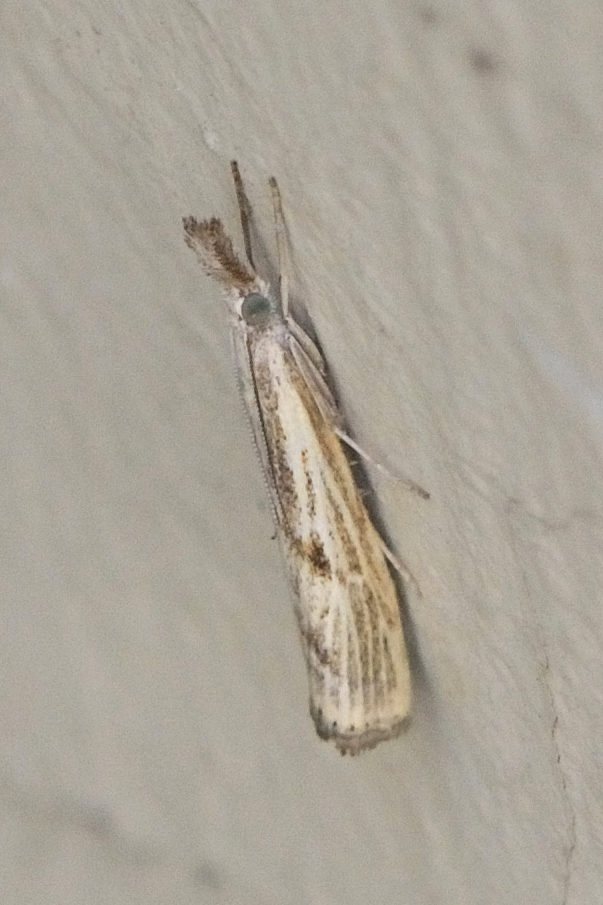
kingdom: Animalia
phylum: Arthropoda
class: Insecta
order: Lepidoptera
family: Crambidae
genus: Agriphila
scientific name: Agriphila inquinatella
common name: Barred grass-veneer
